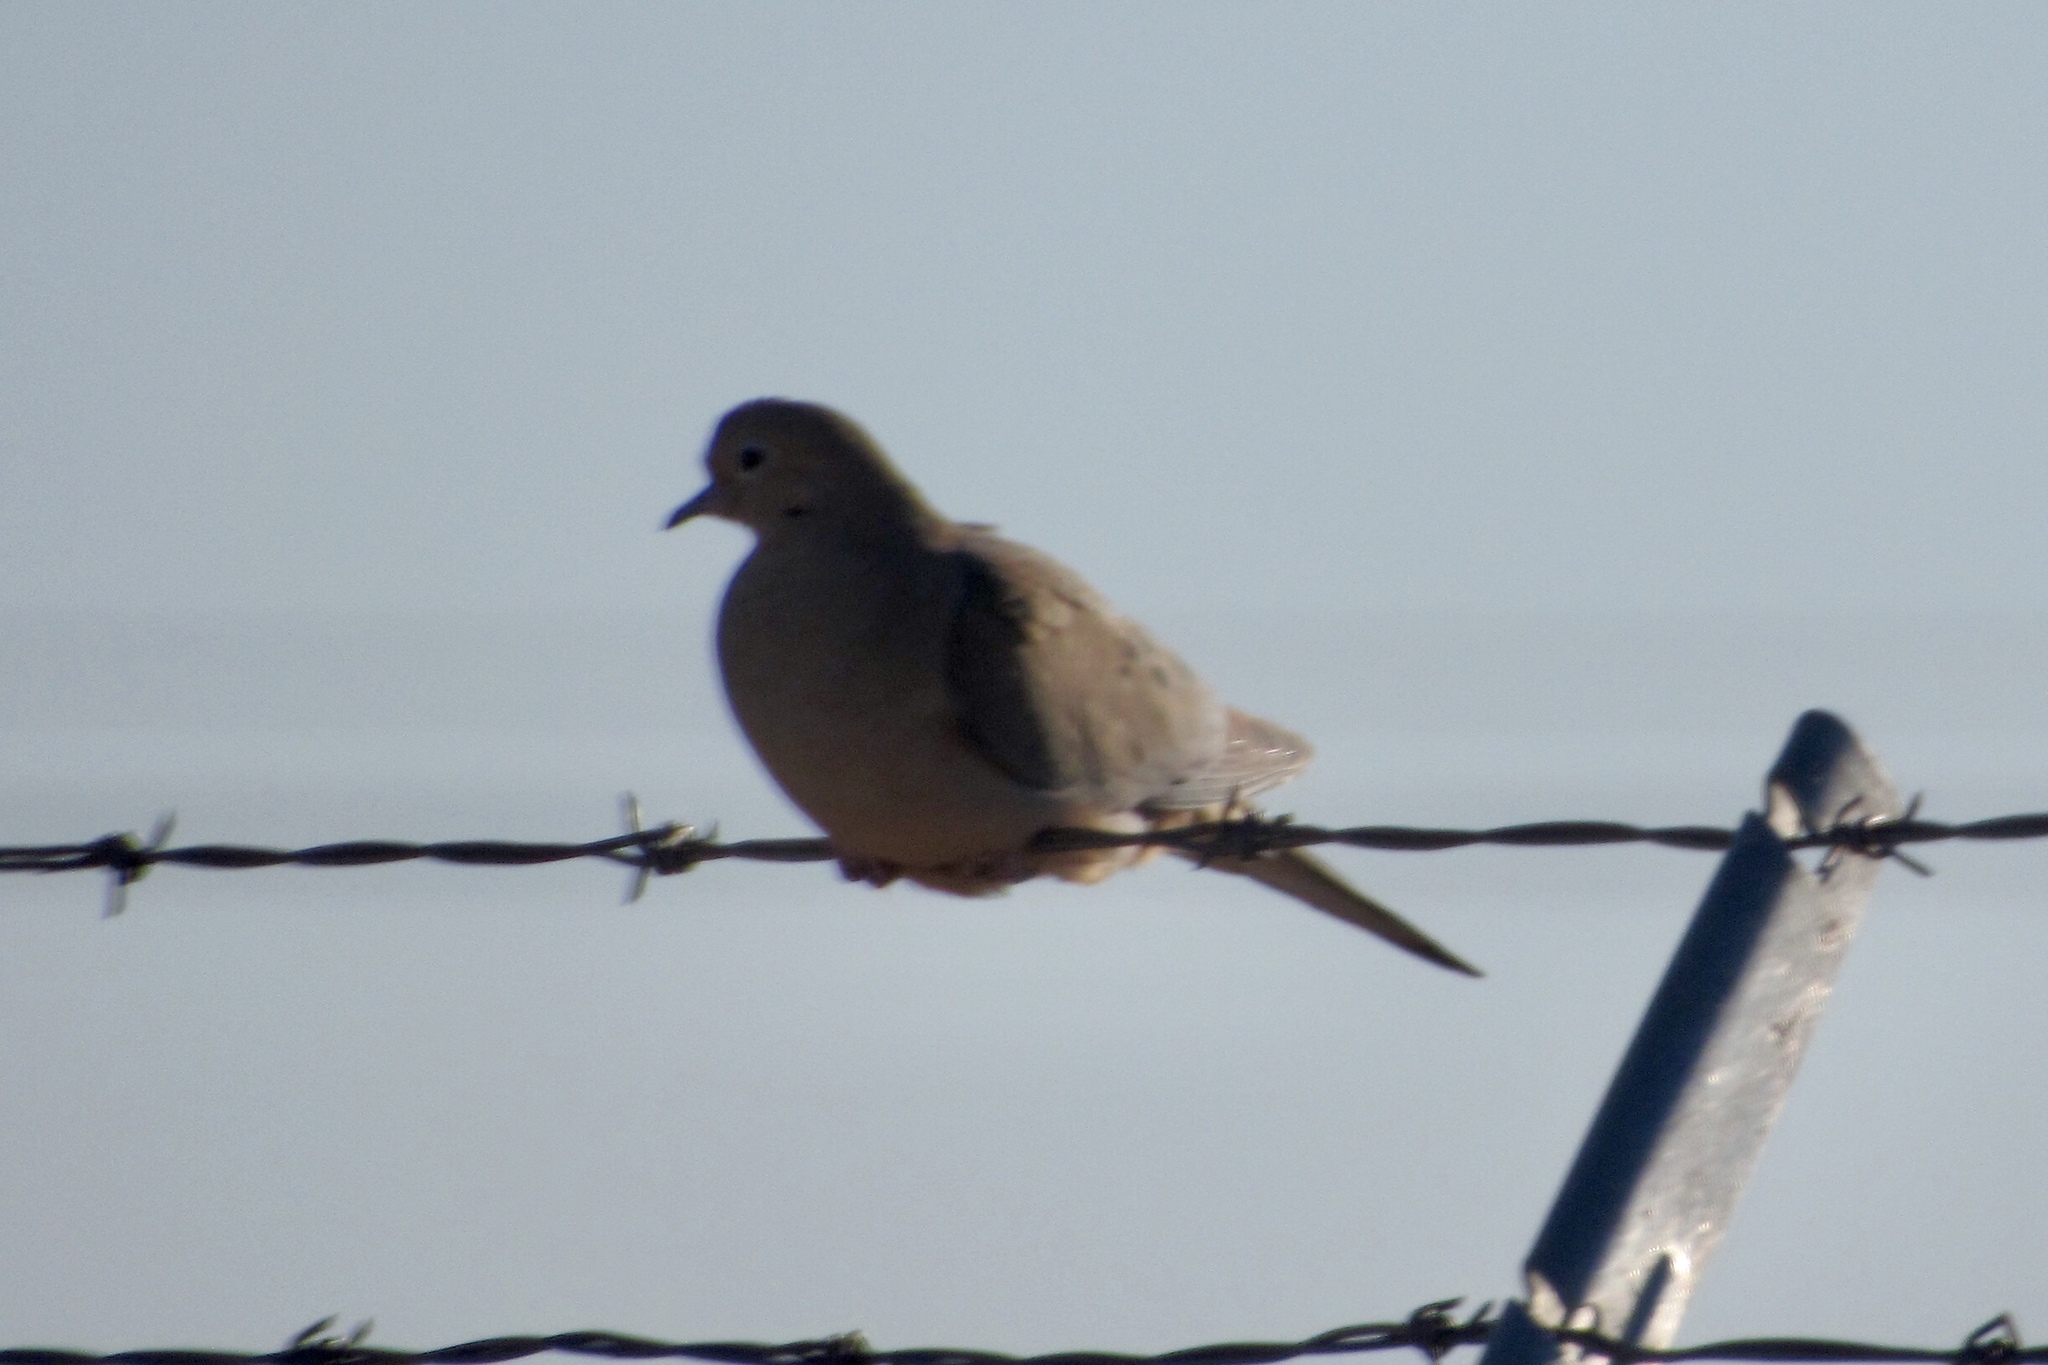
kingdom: Animalia
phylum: Chordata
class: Aves
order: Columbiformes
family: Columbidae
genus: Zenaida
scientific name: Zenaida macroura
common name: Mourning dove
